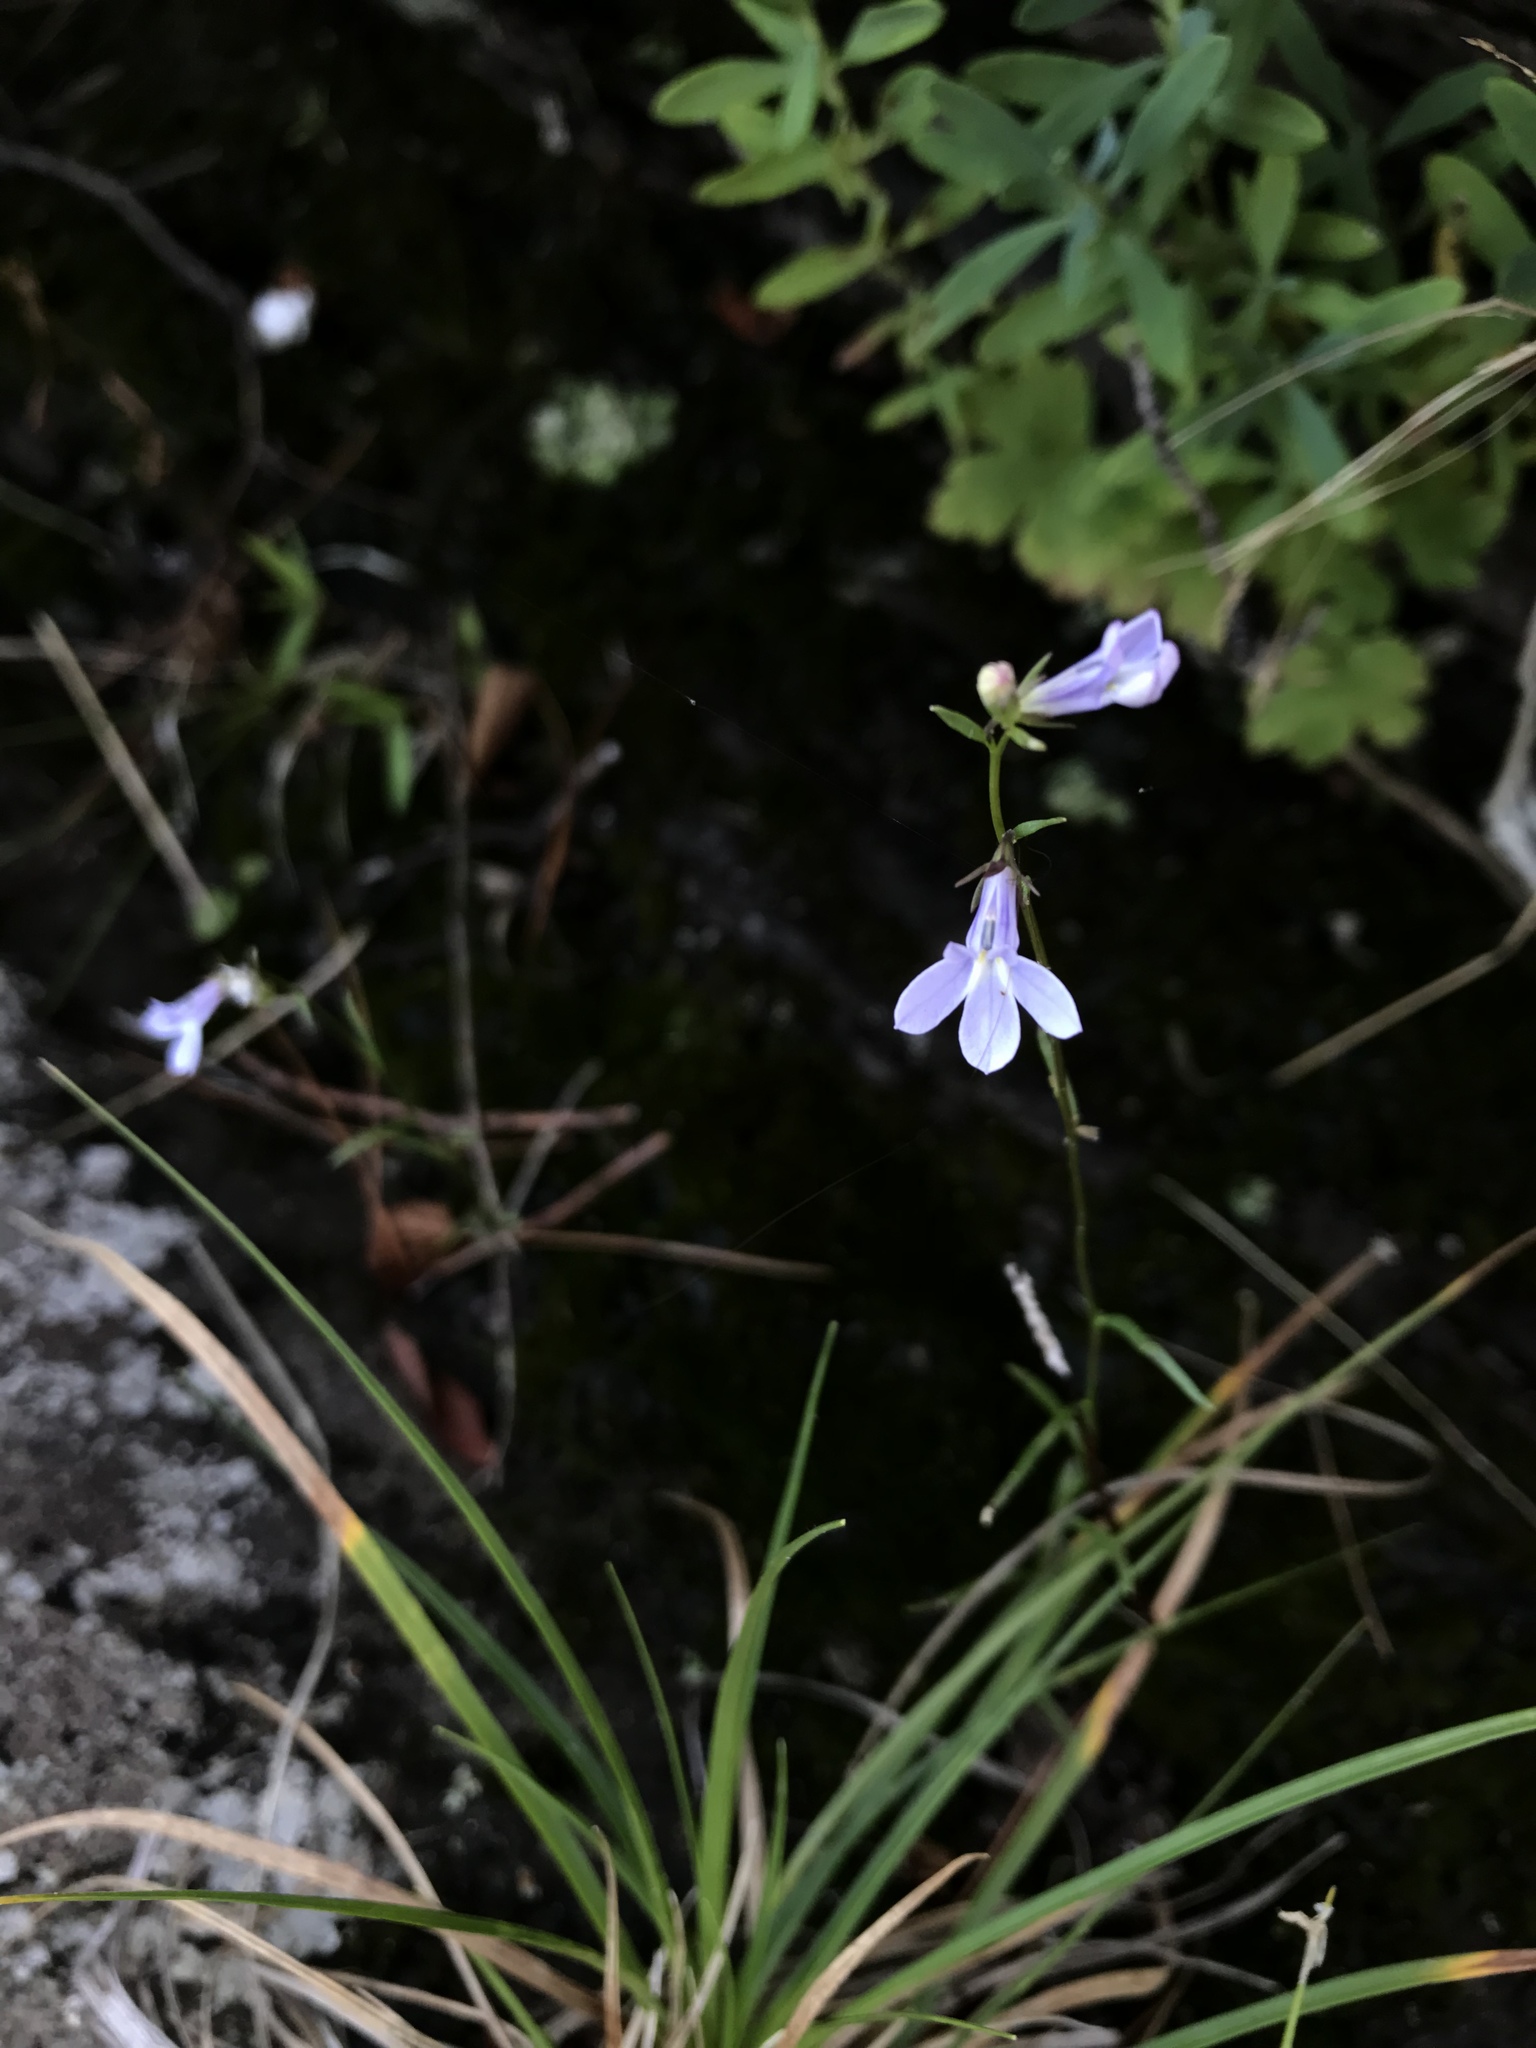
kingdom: Plantae
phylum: Tracheophyta
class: Magnoliopsida
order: Asterales
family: Campanulaceae
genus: Lobelia
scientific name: Lobelia kalmii
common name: Kalm's lobelia
